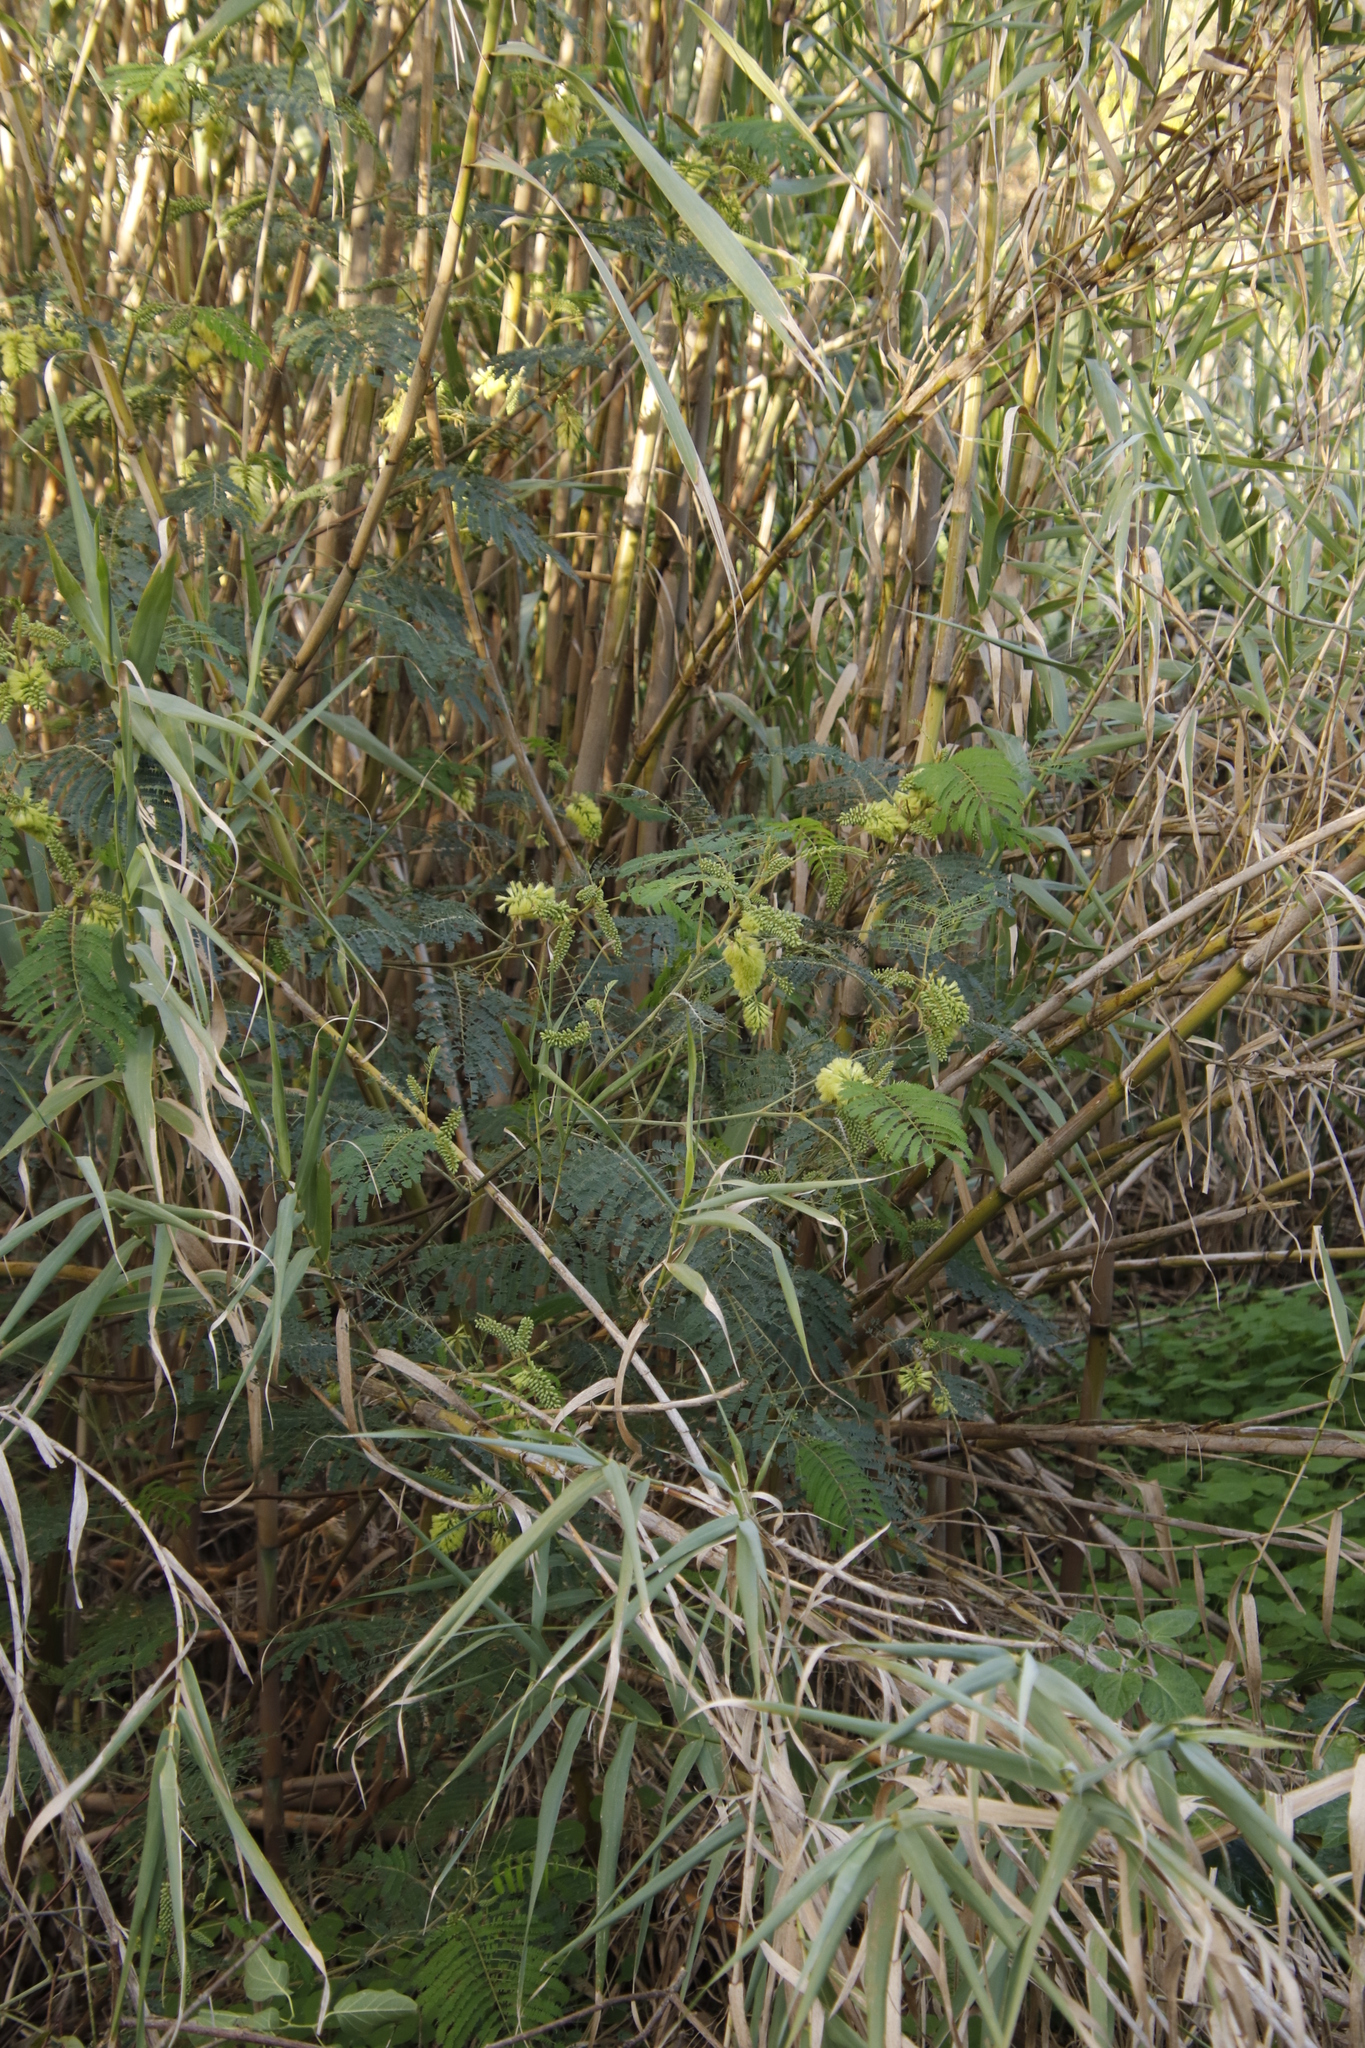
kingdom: Plantae
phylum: Tracheophyta
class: Magnoliopsida
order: Fabales
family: Fabaceae
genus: Paraserianthes
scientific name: Paraserianthes lophantha
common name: Plume albizia
